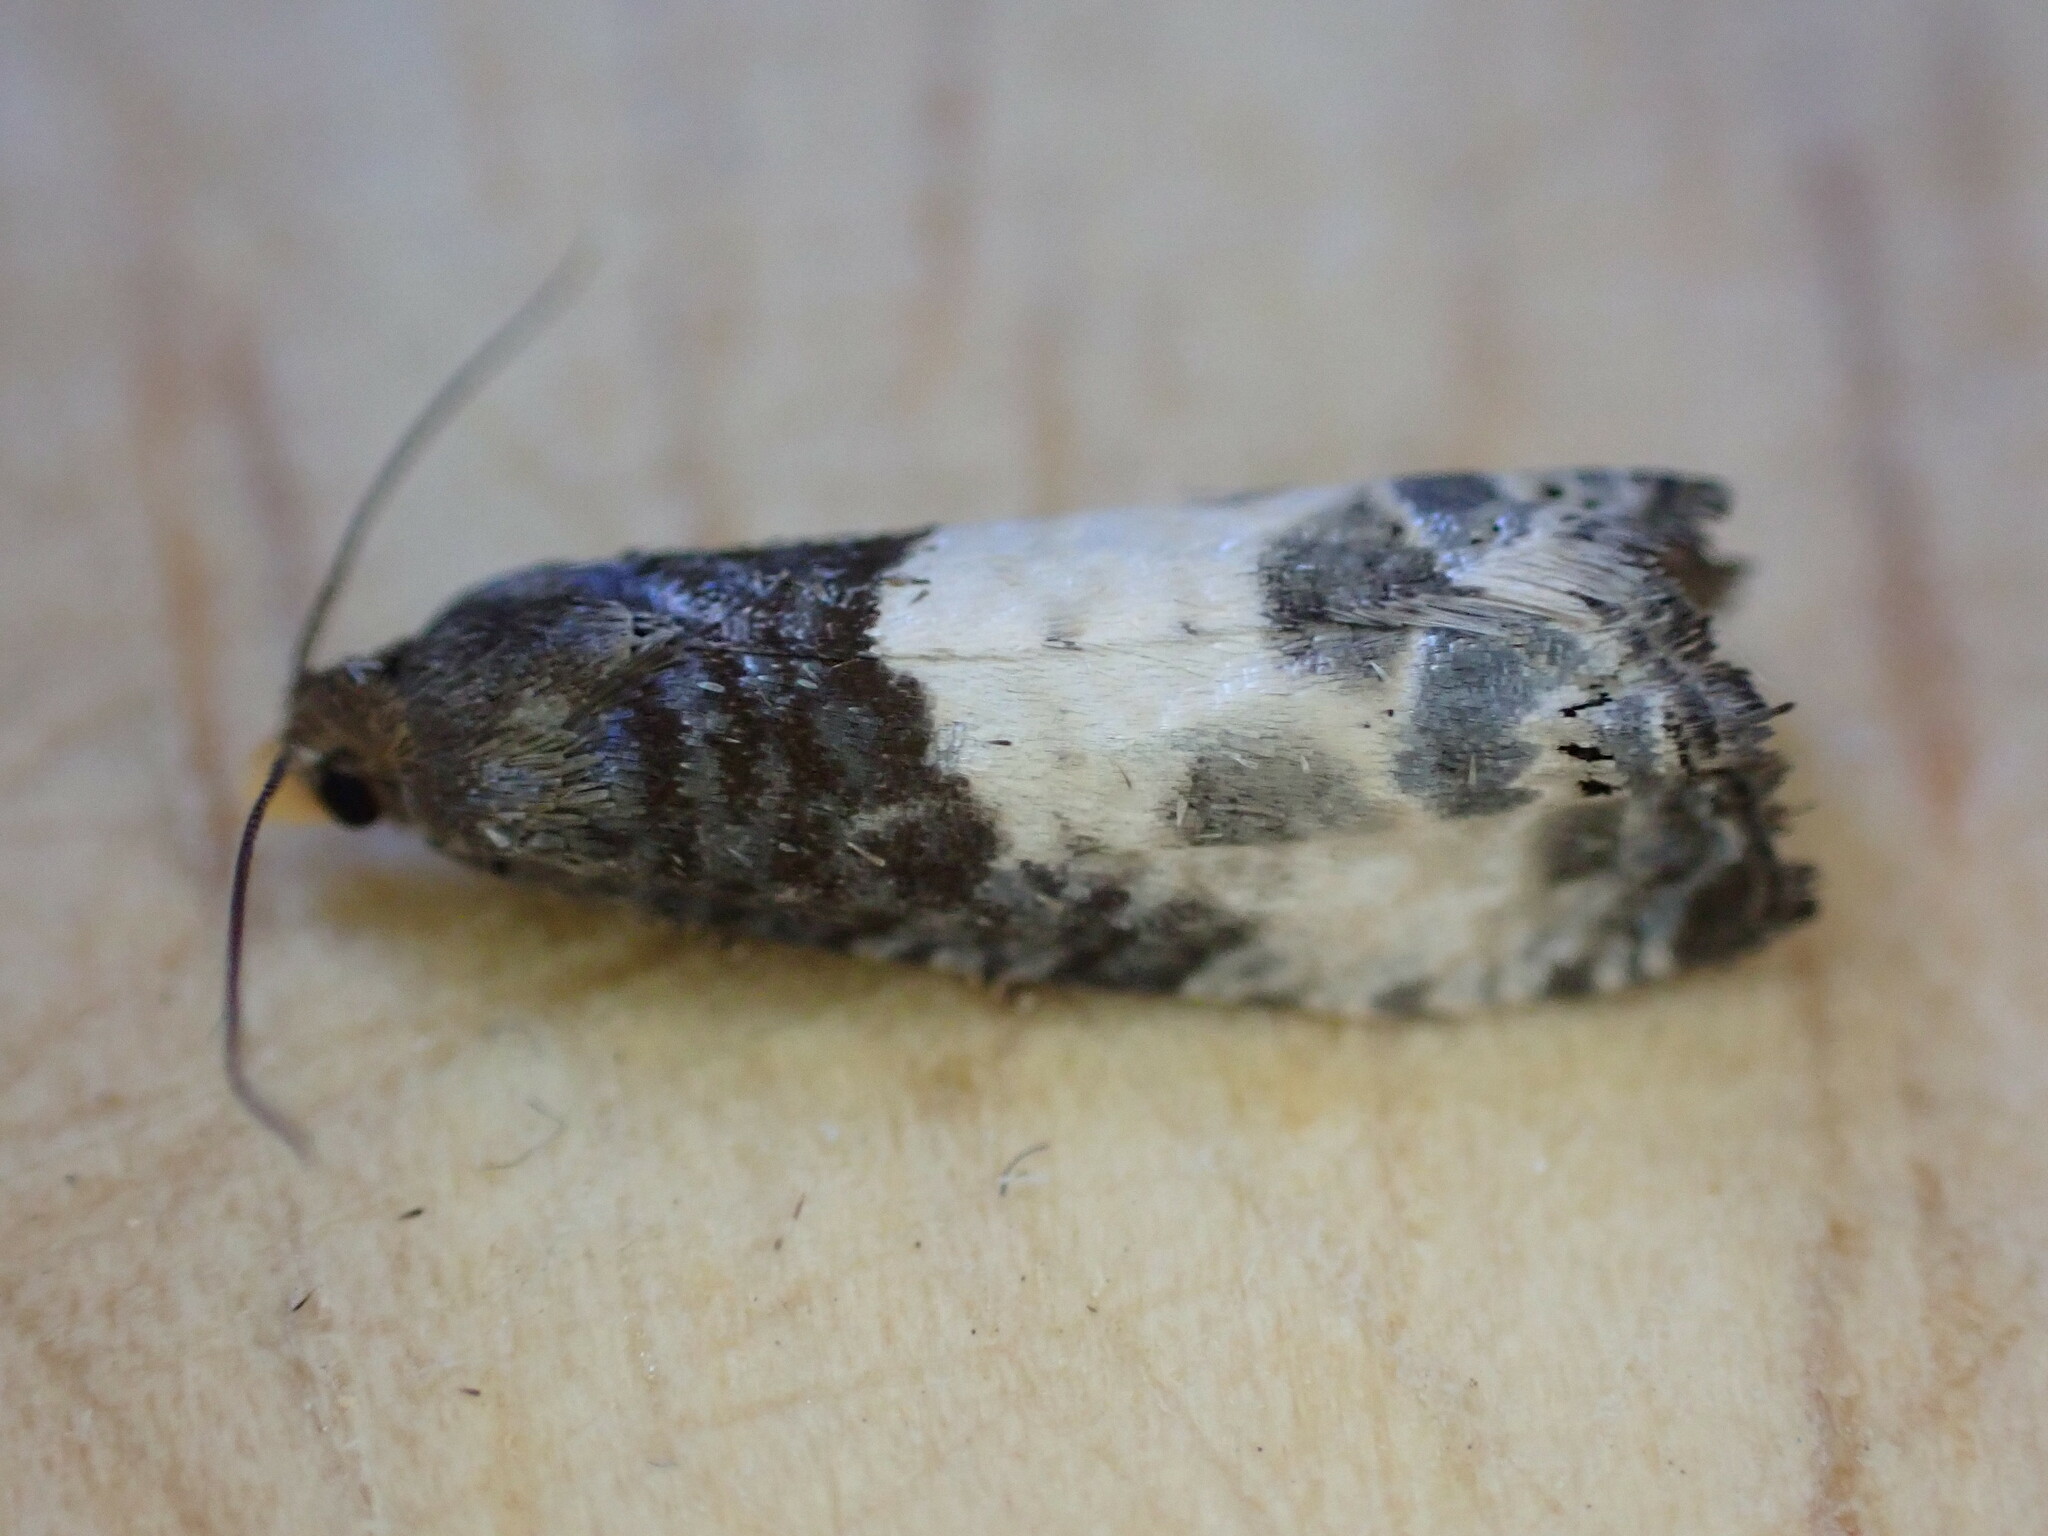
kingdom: Animalia
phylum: Arthropoda
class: Insecta
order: Lepidoptera
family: Tortricidae
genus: Notocelia
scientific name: Notocelia cynosbatella
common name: Yellow-faced bell moth
